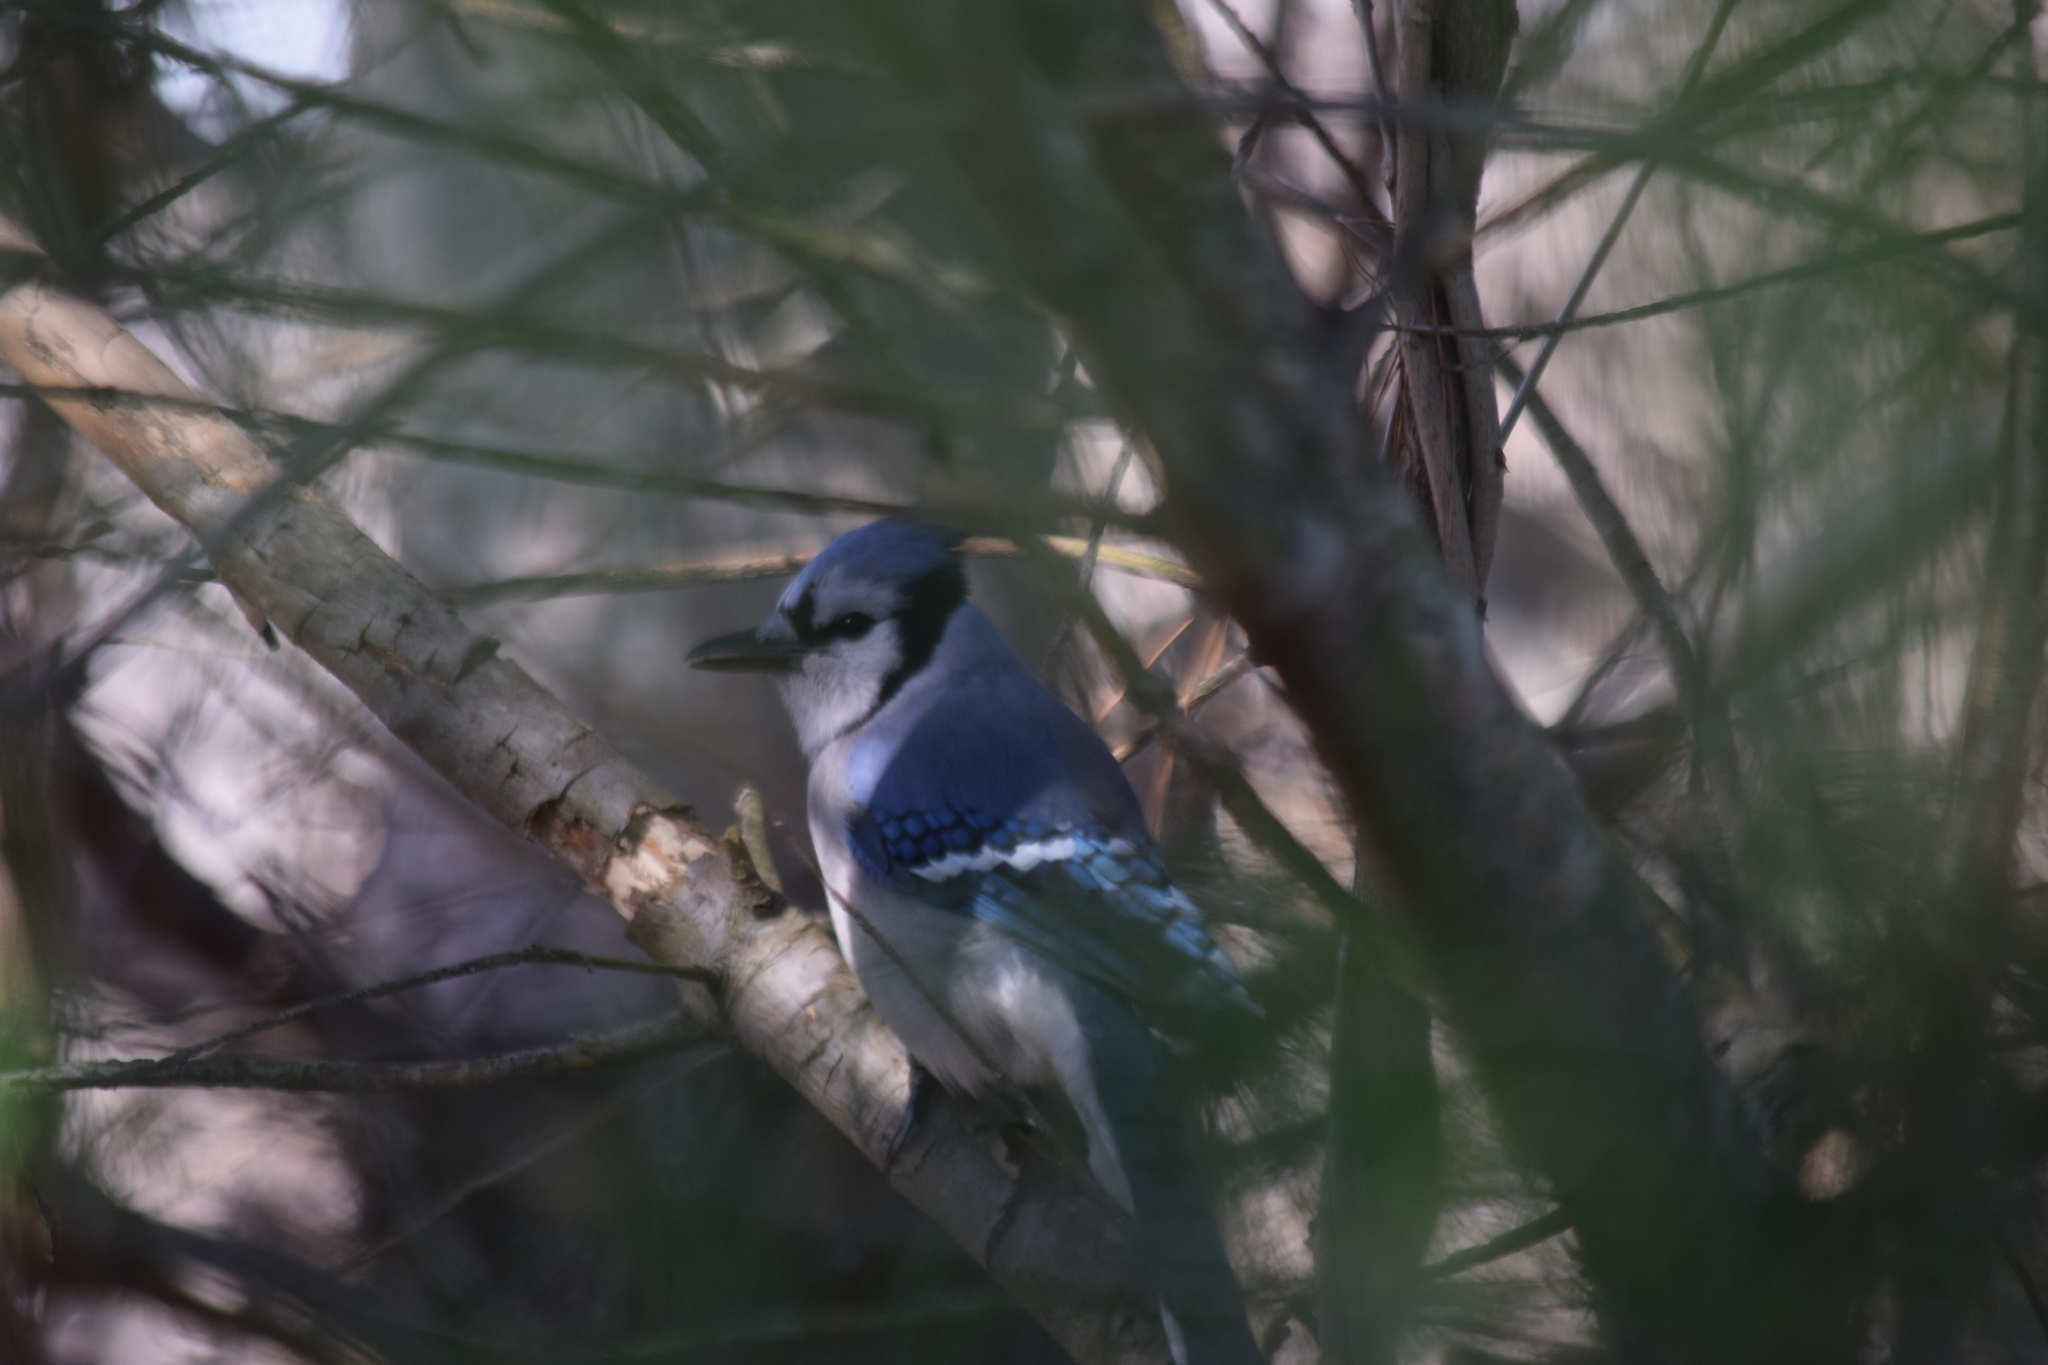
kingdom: Animalia
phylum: Chordata
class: Aves
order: Passeriformes
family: Corvidae
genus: Cyanocitta
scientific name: Cyanocitta cristata
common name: Blue jay
